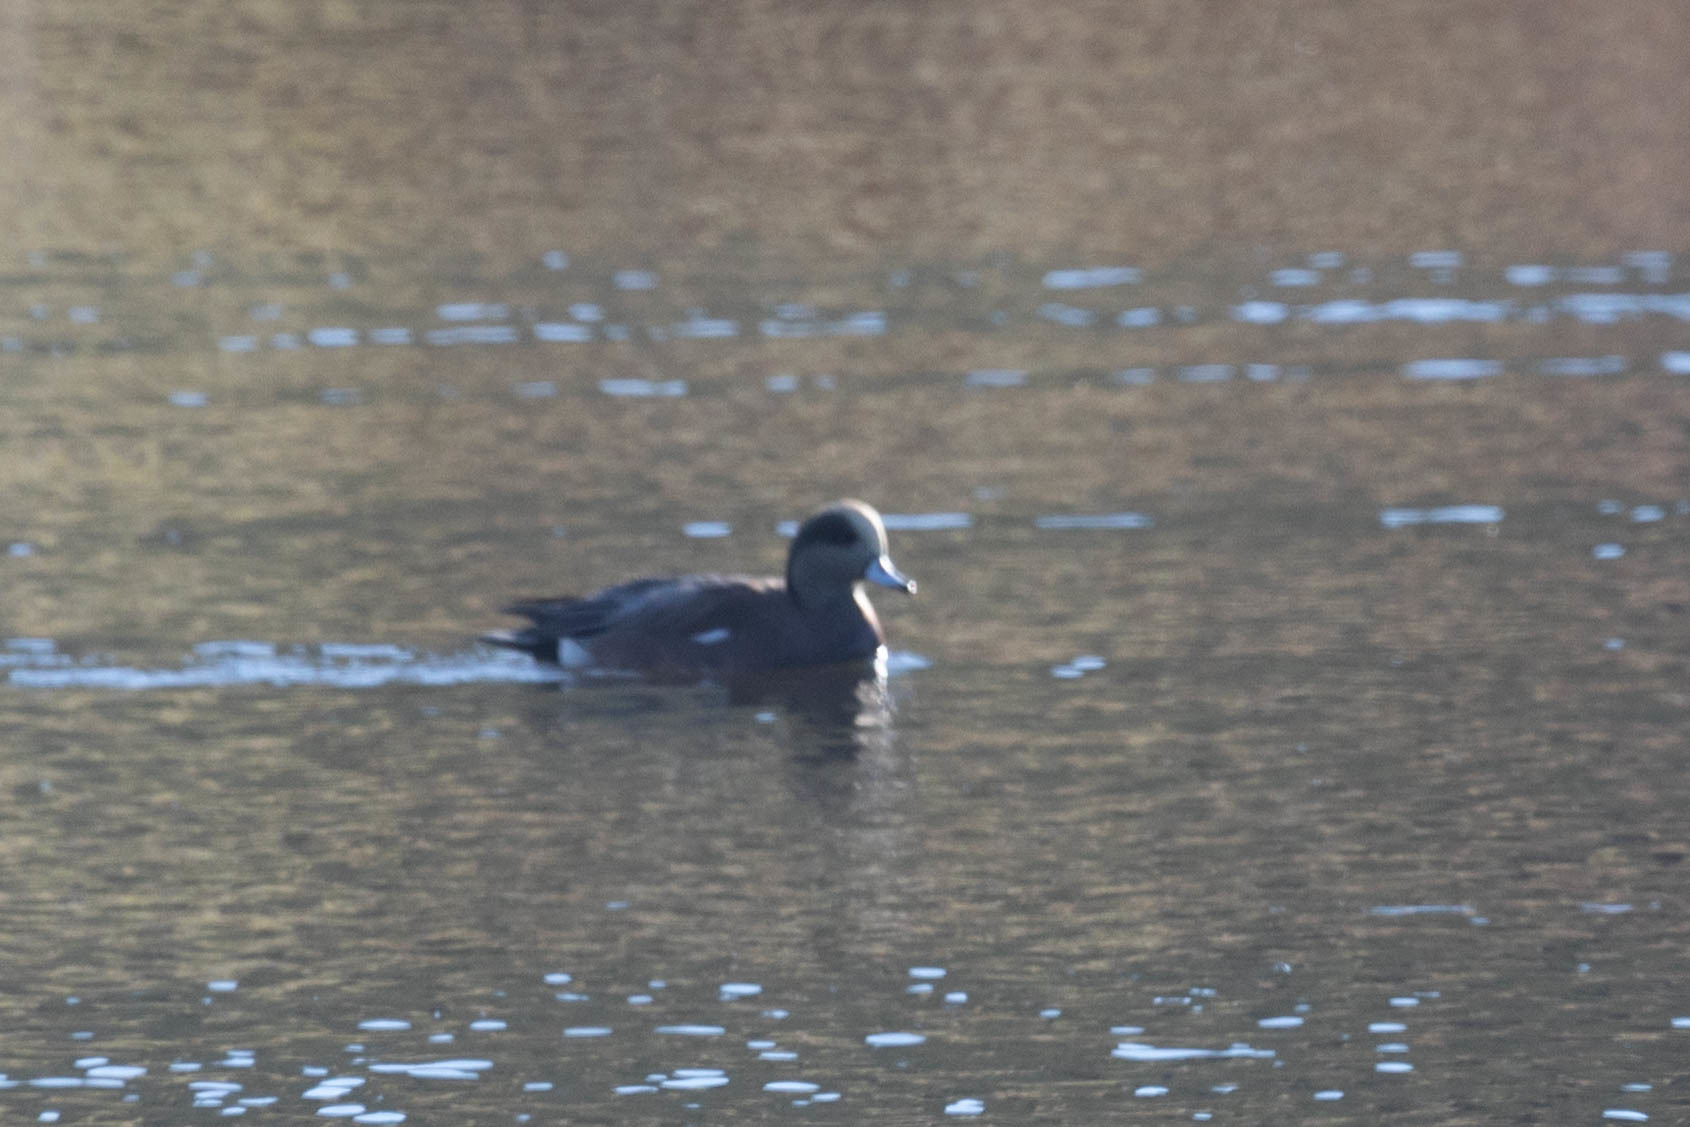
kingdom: Animalia
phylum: Chordata
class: Aves
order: Anseriformes
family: Anatidae
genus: Mareca
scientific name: Mareca americana
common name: American wigeon
